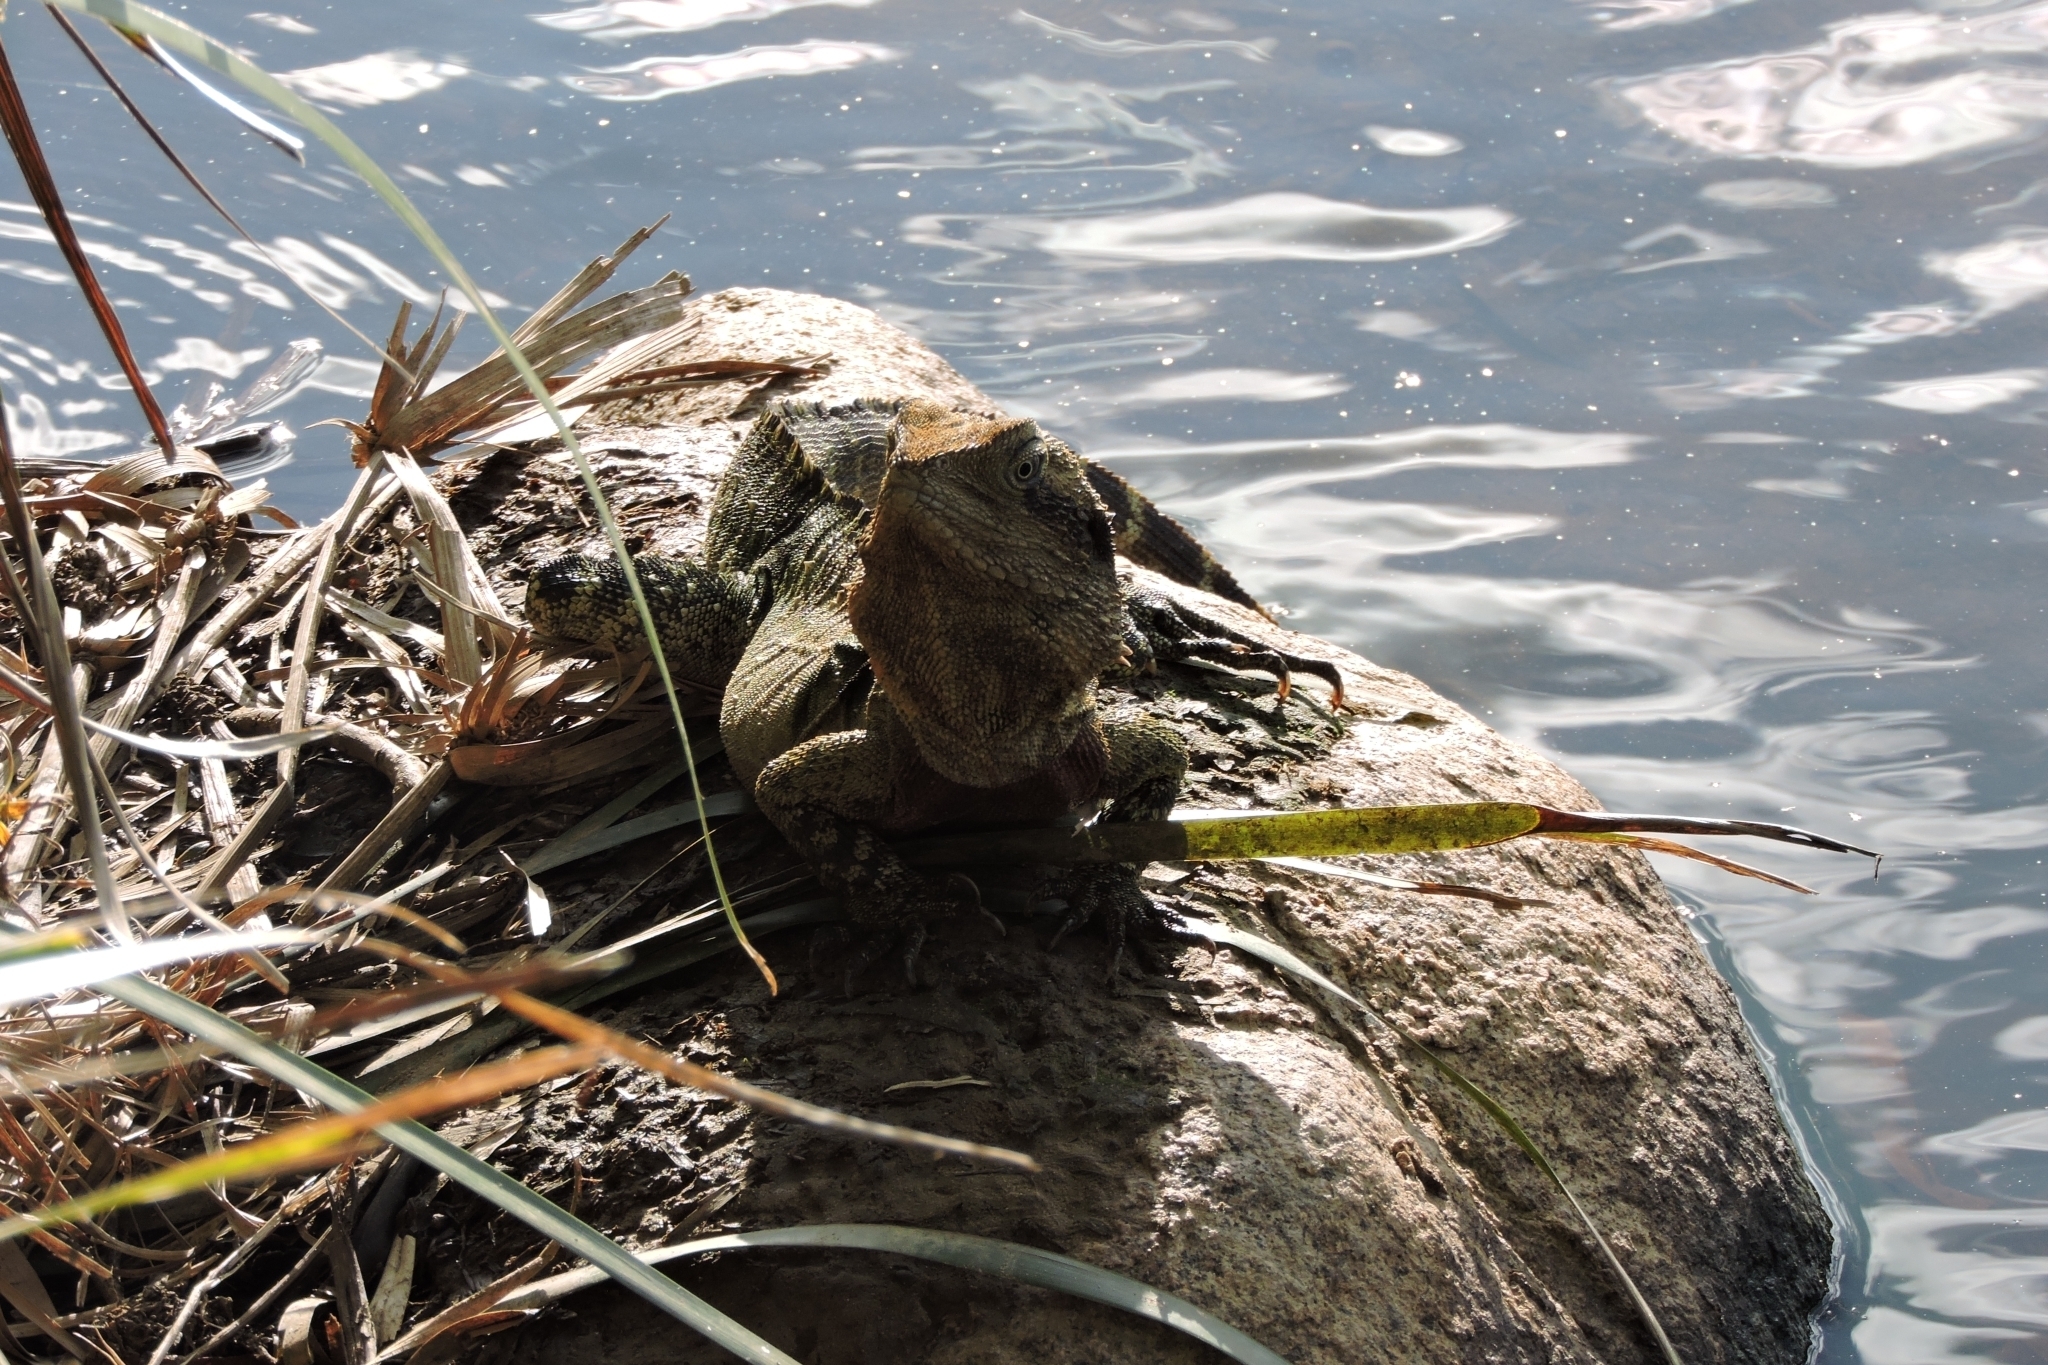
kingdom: Animalia
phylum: Chordata
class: Squamata
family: Agamidae
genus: Intellagama
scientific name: Intellagama lesueurii
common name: Eastern water dragon
